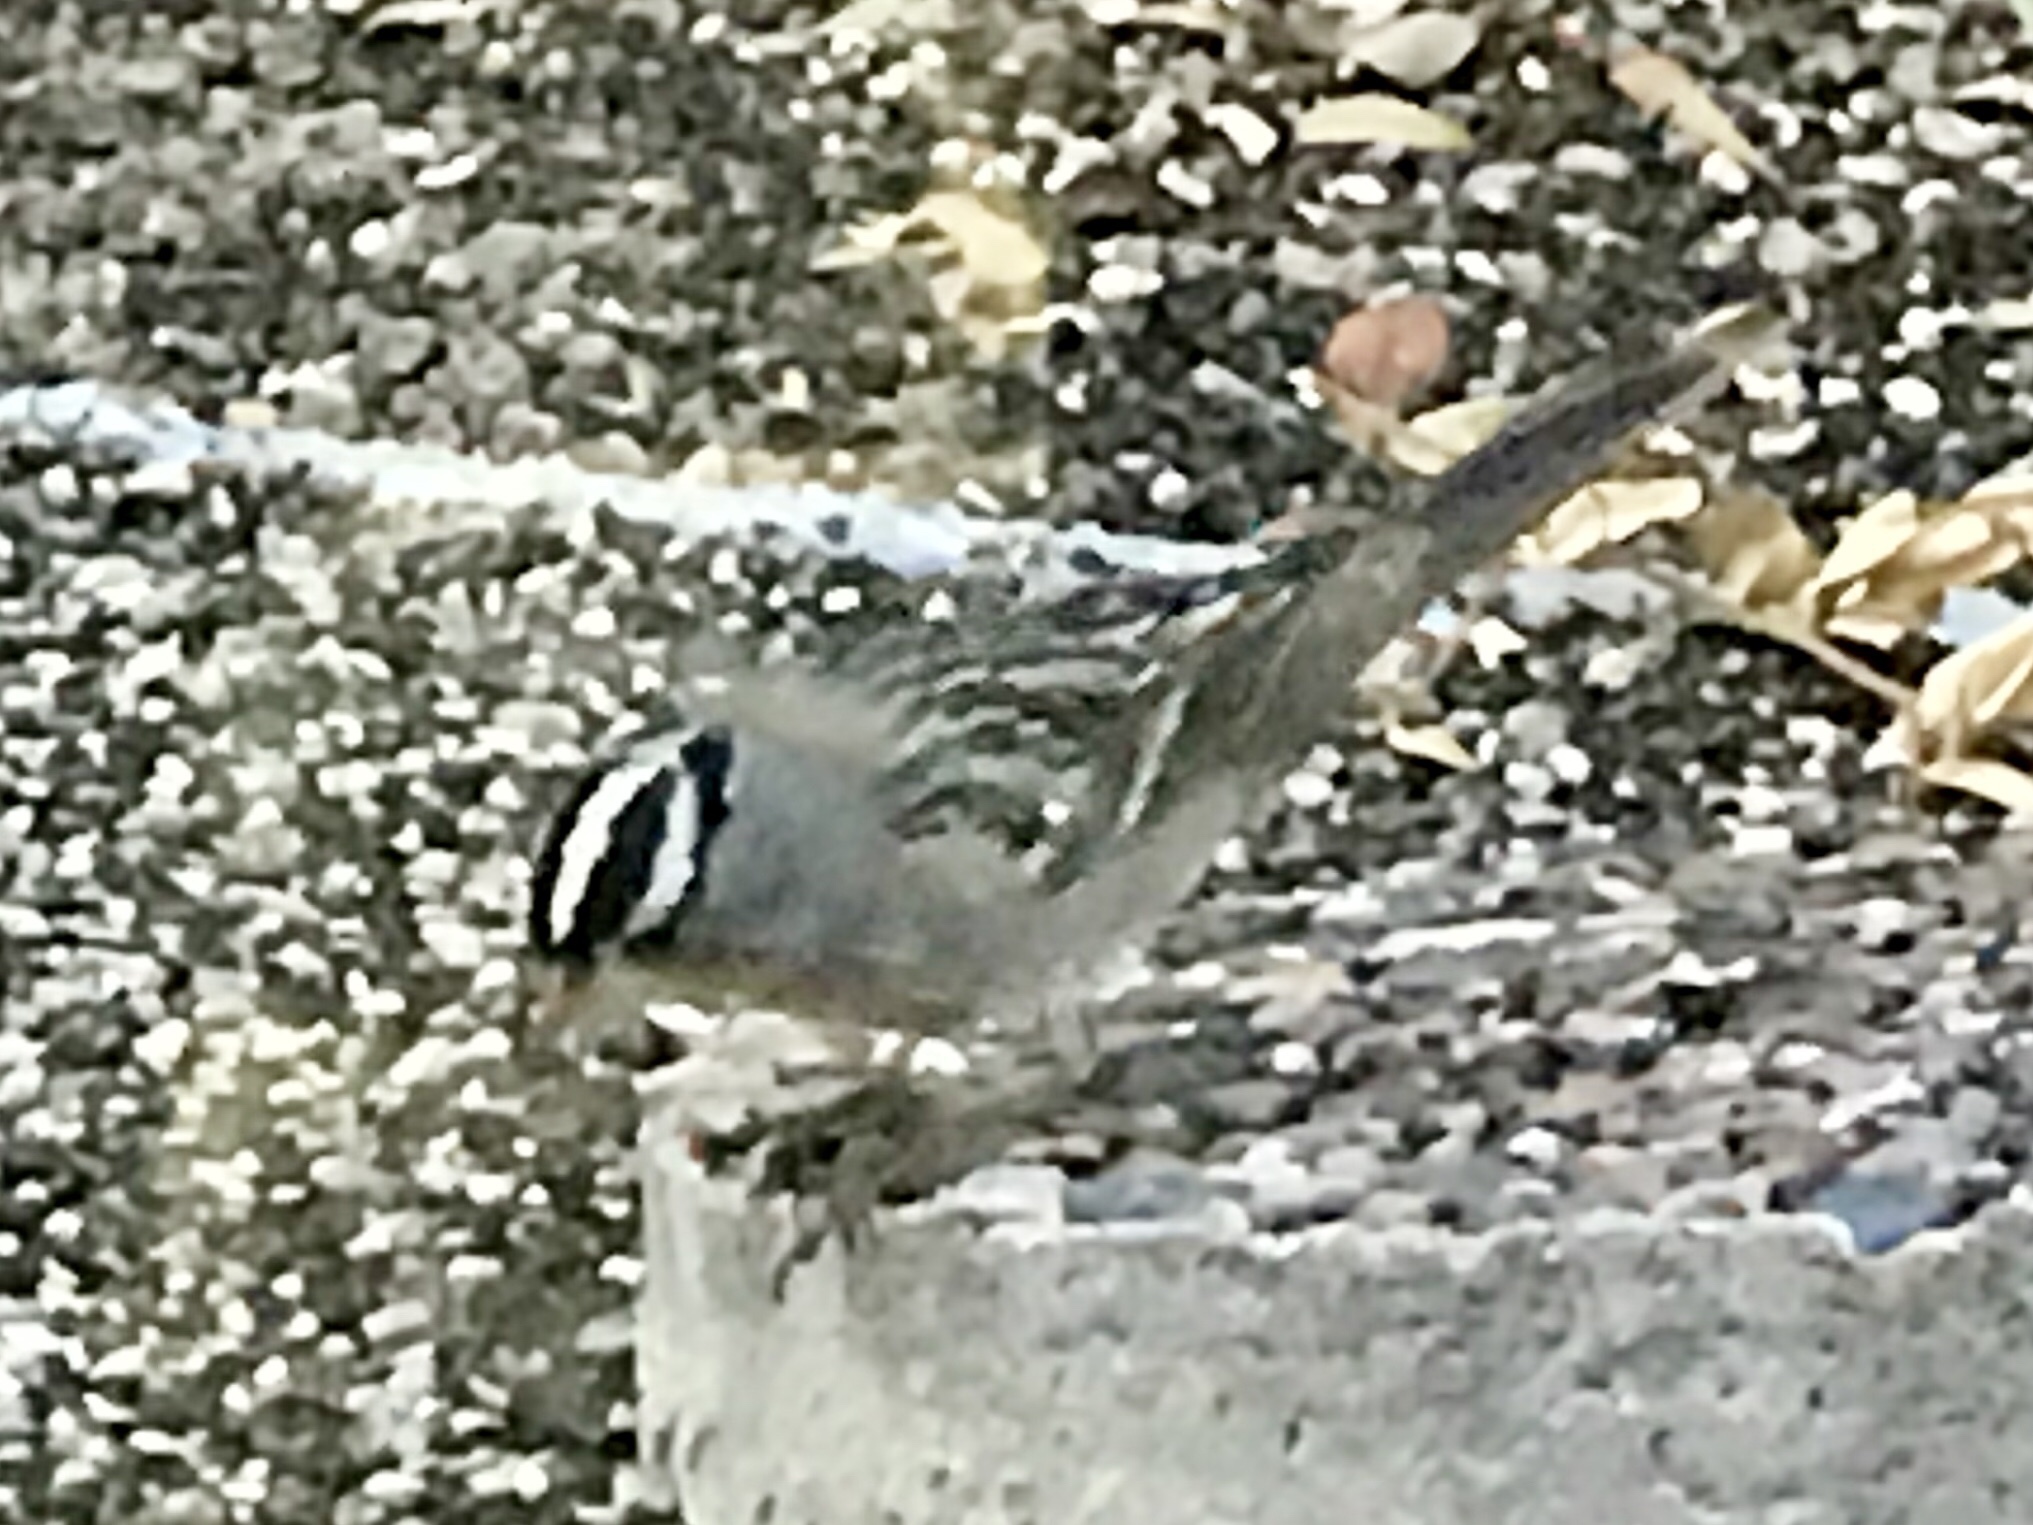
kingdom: Animalia
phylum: Chordata
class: Aves
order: Passeriformes
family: Passerellidae
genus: Zonotrichia
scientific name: Zonotrichia leucophrys
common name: White-crowned sparrow
